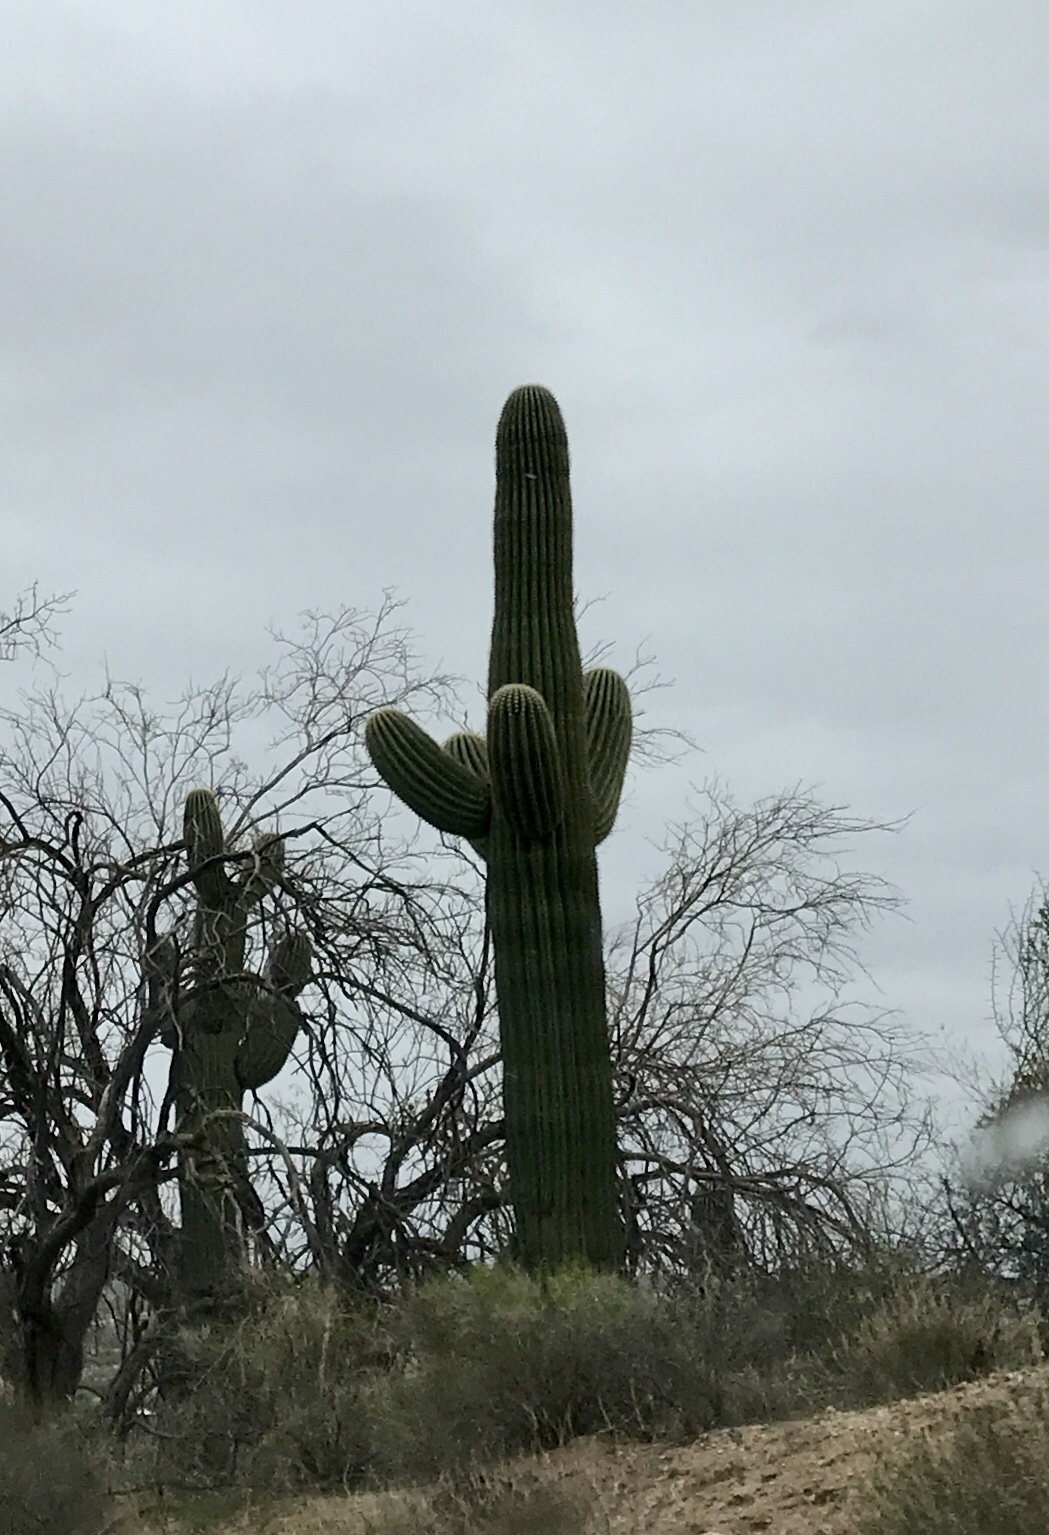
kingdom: Plantae
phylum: Tracheophyta
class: Magnoliopsida
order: Caryophyllales
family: Cactaceae
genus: Carnegiea
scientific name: Carnegiea gigantea
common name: Saguaro
